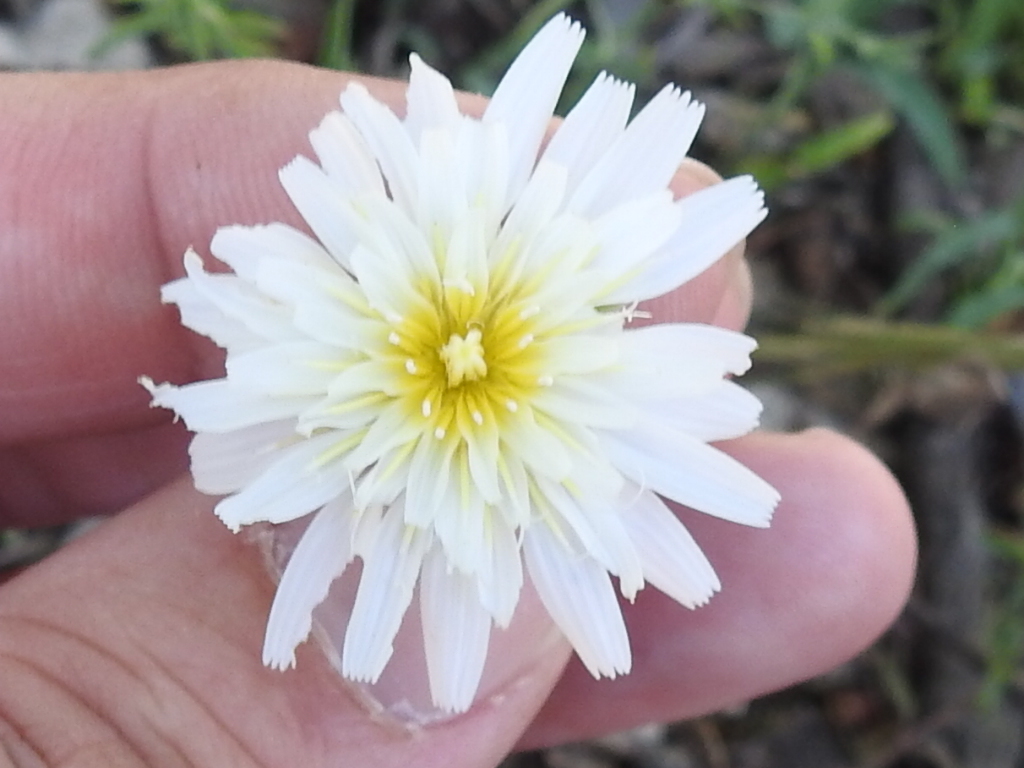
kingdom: Plantae
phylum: Tracheophyta
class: Magnoliopsida
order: Asterales
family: Asteraceae
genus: Pinaropappus
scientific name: Pinaropappus roseus
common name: Rock-lettuce
